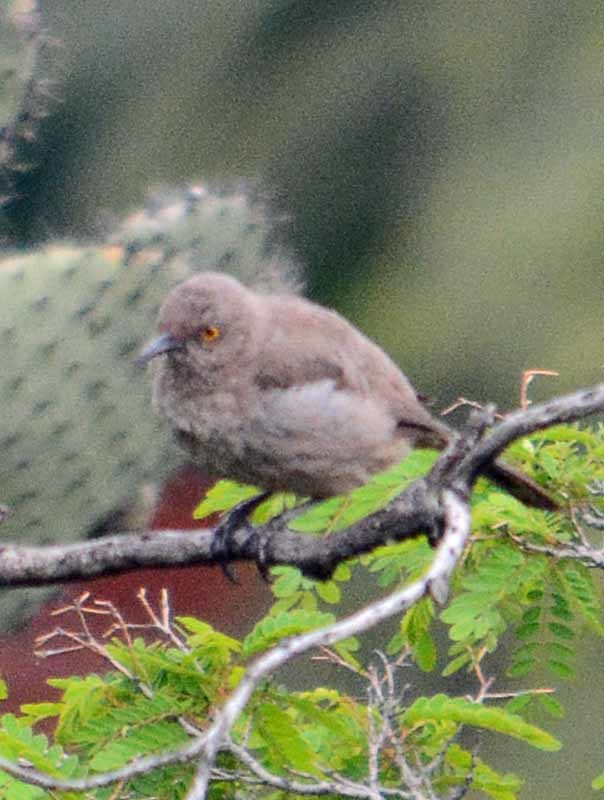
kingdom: Animalia
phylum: Chordata
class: Aves
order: Passeriformes
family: Mimidae
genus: Toxostoma
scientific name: Toxostoma curvirostre
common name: Curve-billed thrasher
